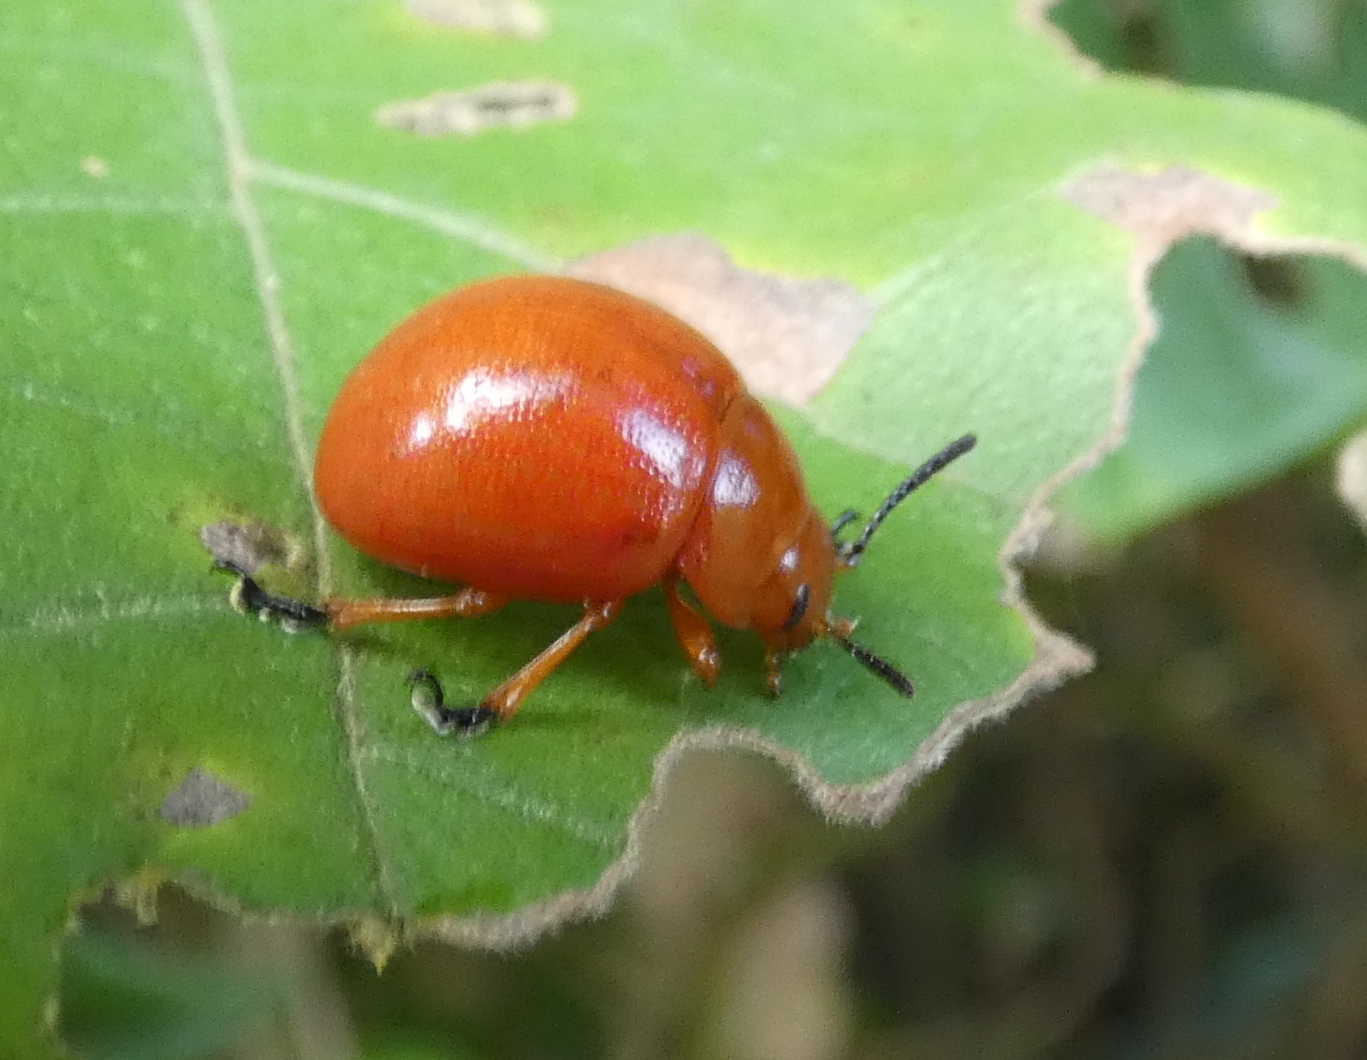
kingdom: Animalia
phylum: Arthropoda
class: Insecta
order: Coleoptera
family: Chrysomelidae
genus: Eugonycha
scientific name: Eugonycha
